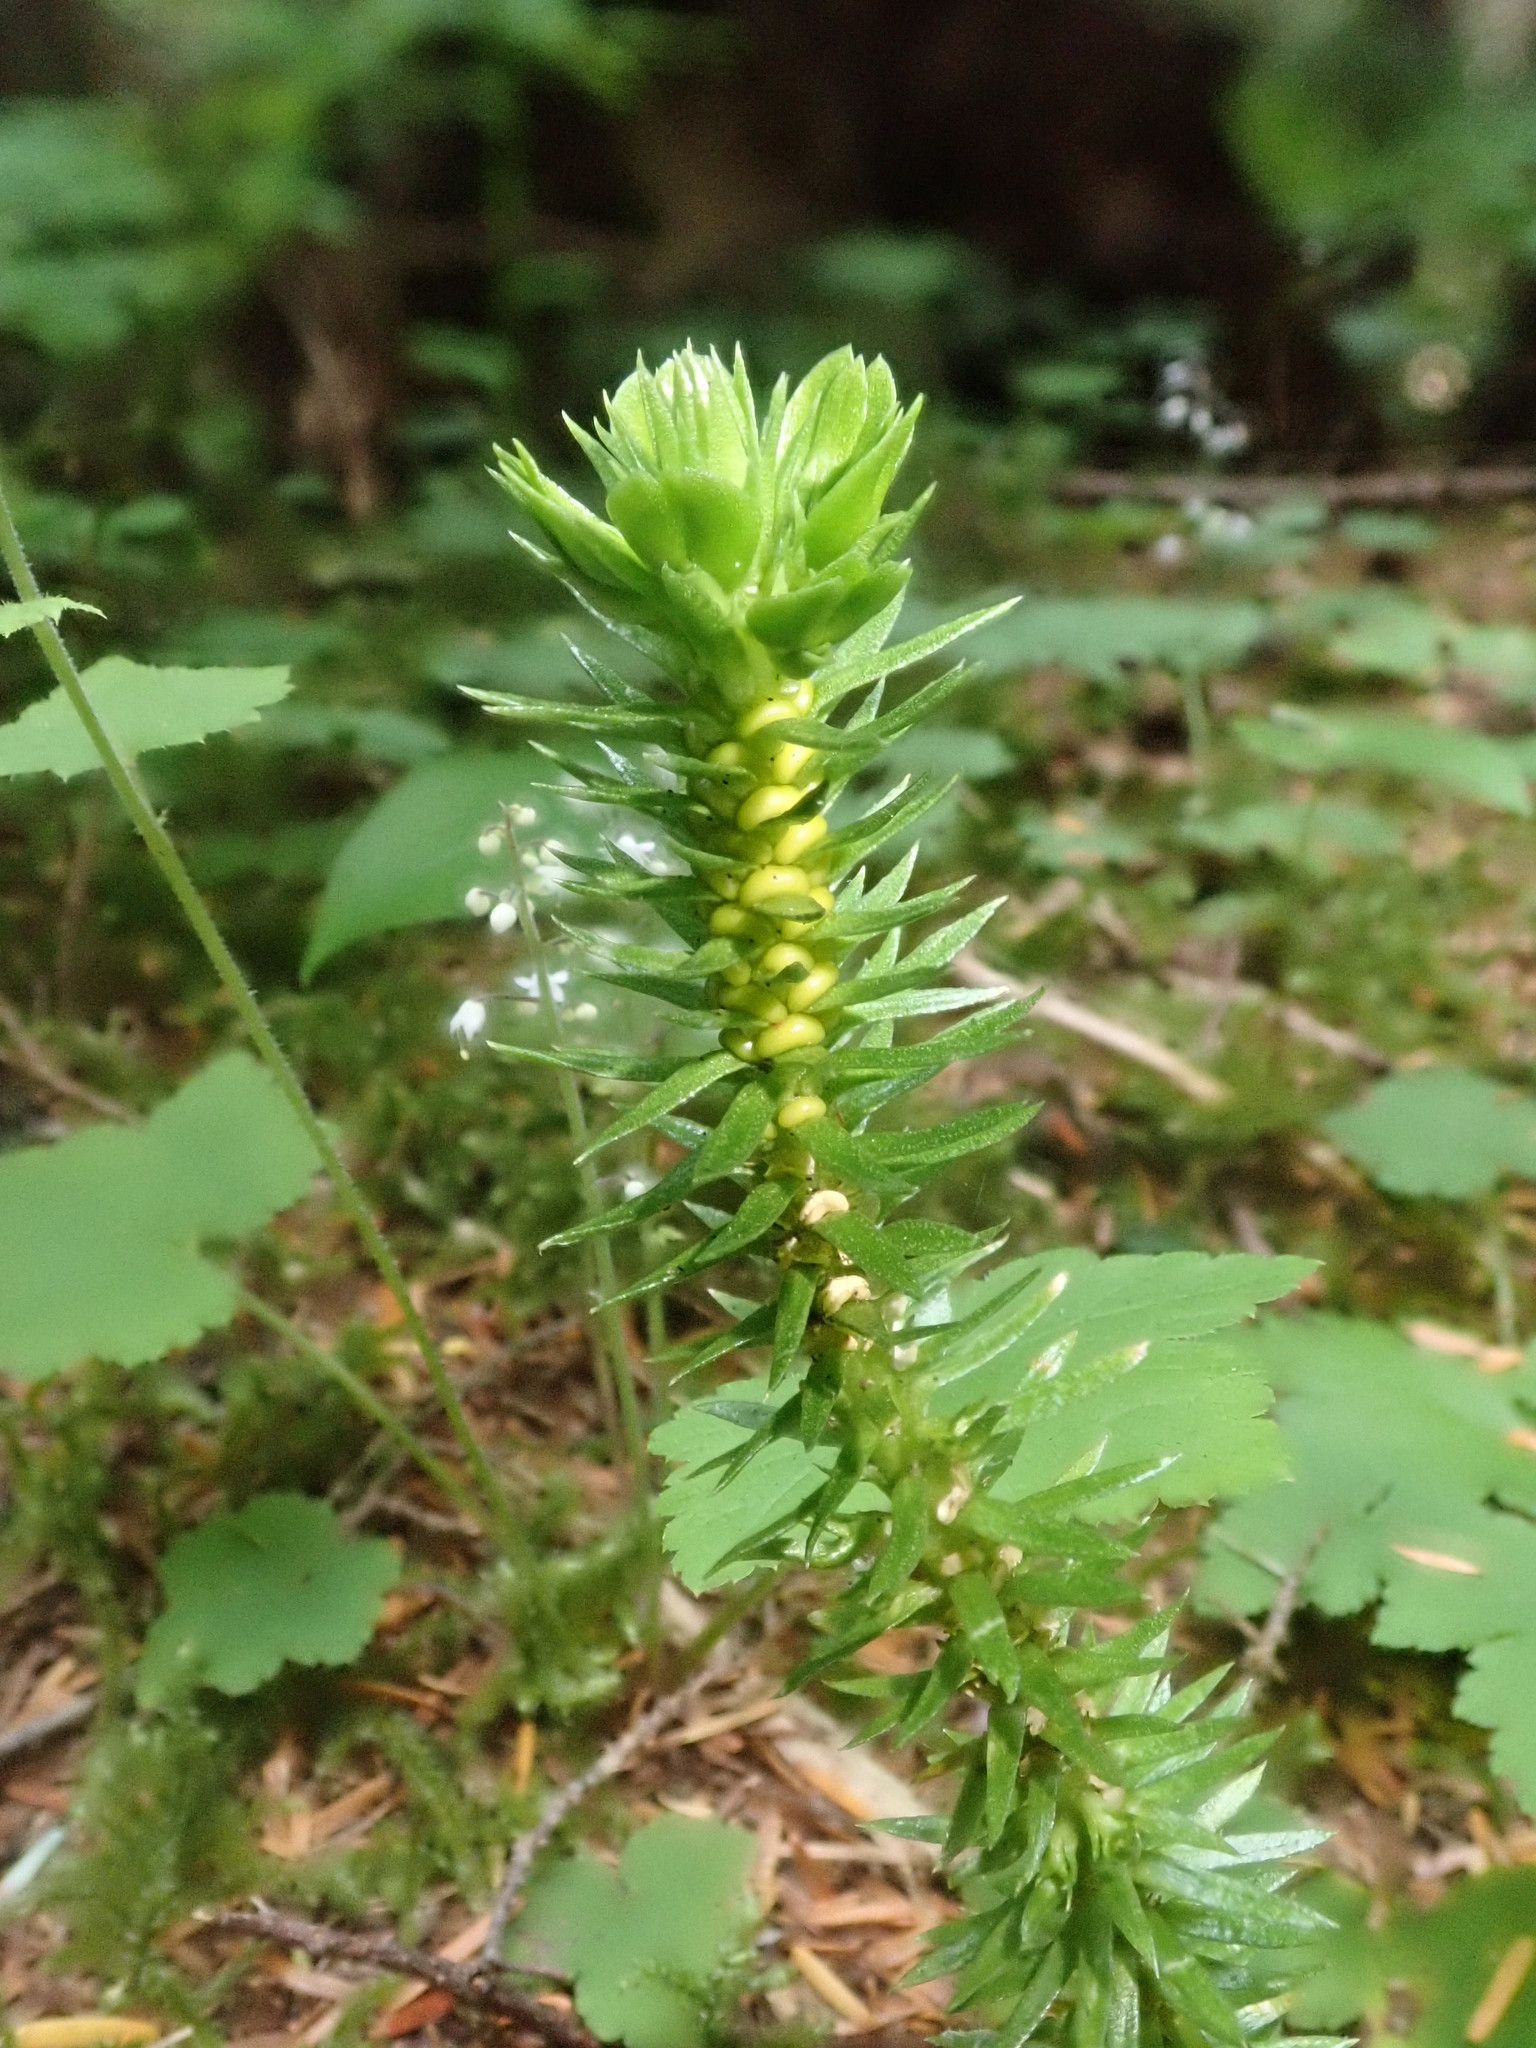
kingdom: Plantae
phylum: Tracheophyta
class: Lycopodiopsida
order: Lycopodiales
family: Lycopodiaceae
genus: Huperzia
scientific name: Huperzia occidentalis
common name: Western clubmoss
